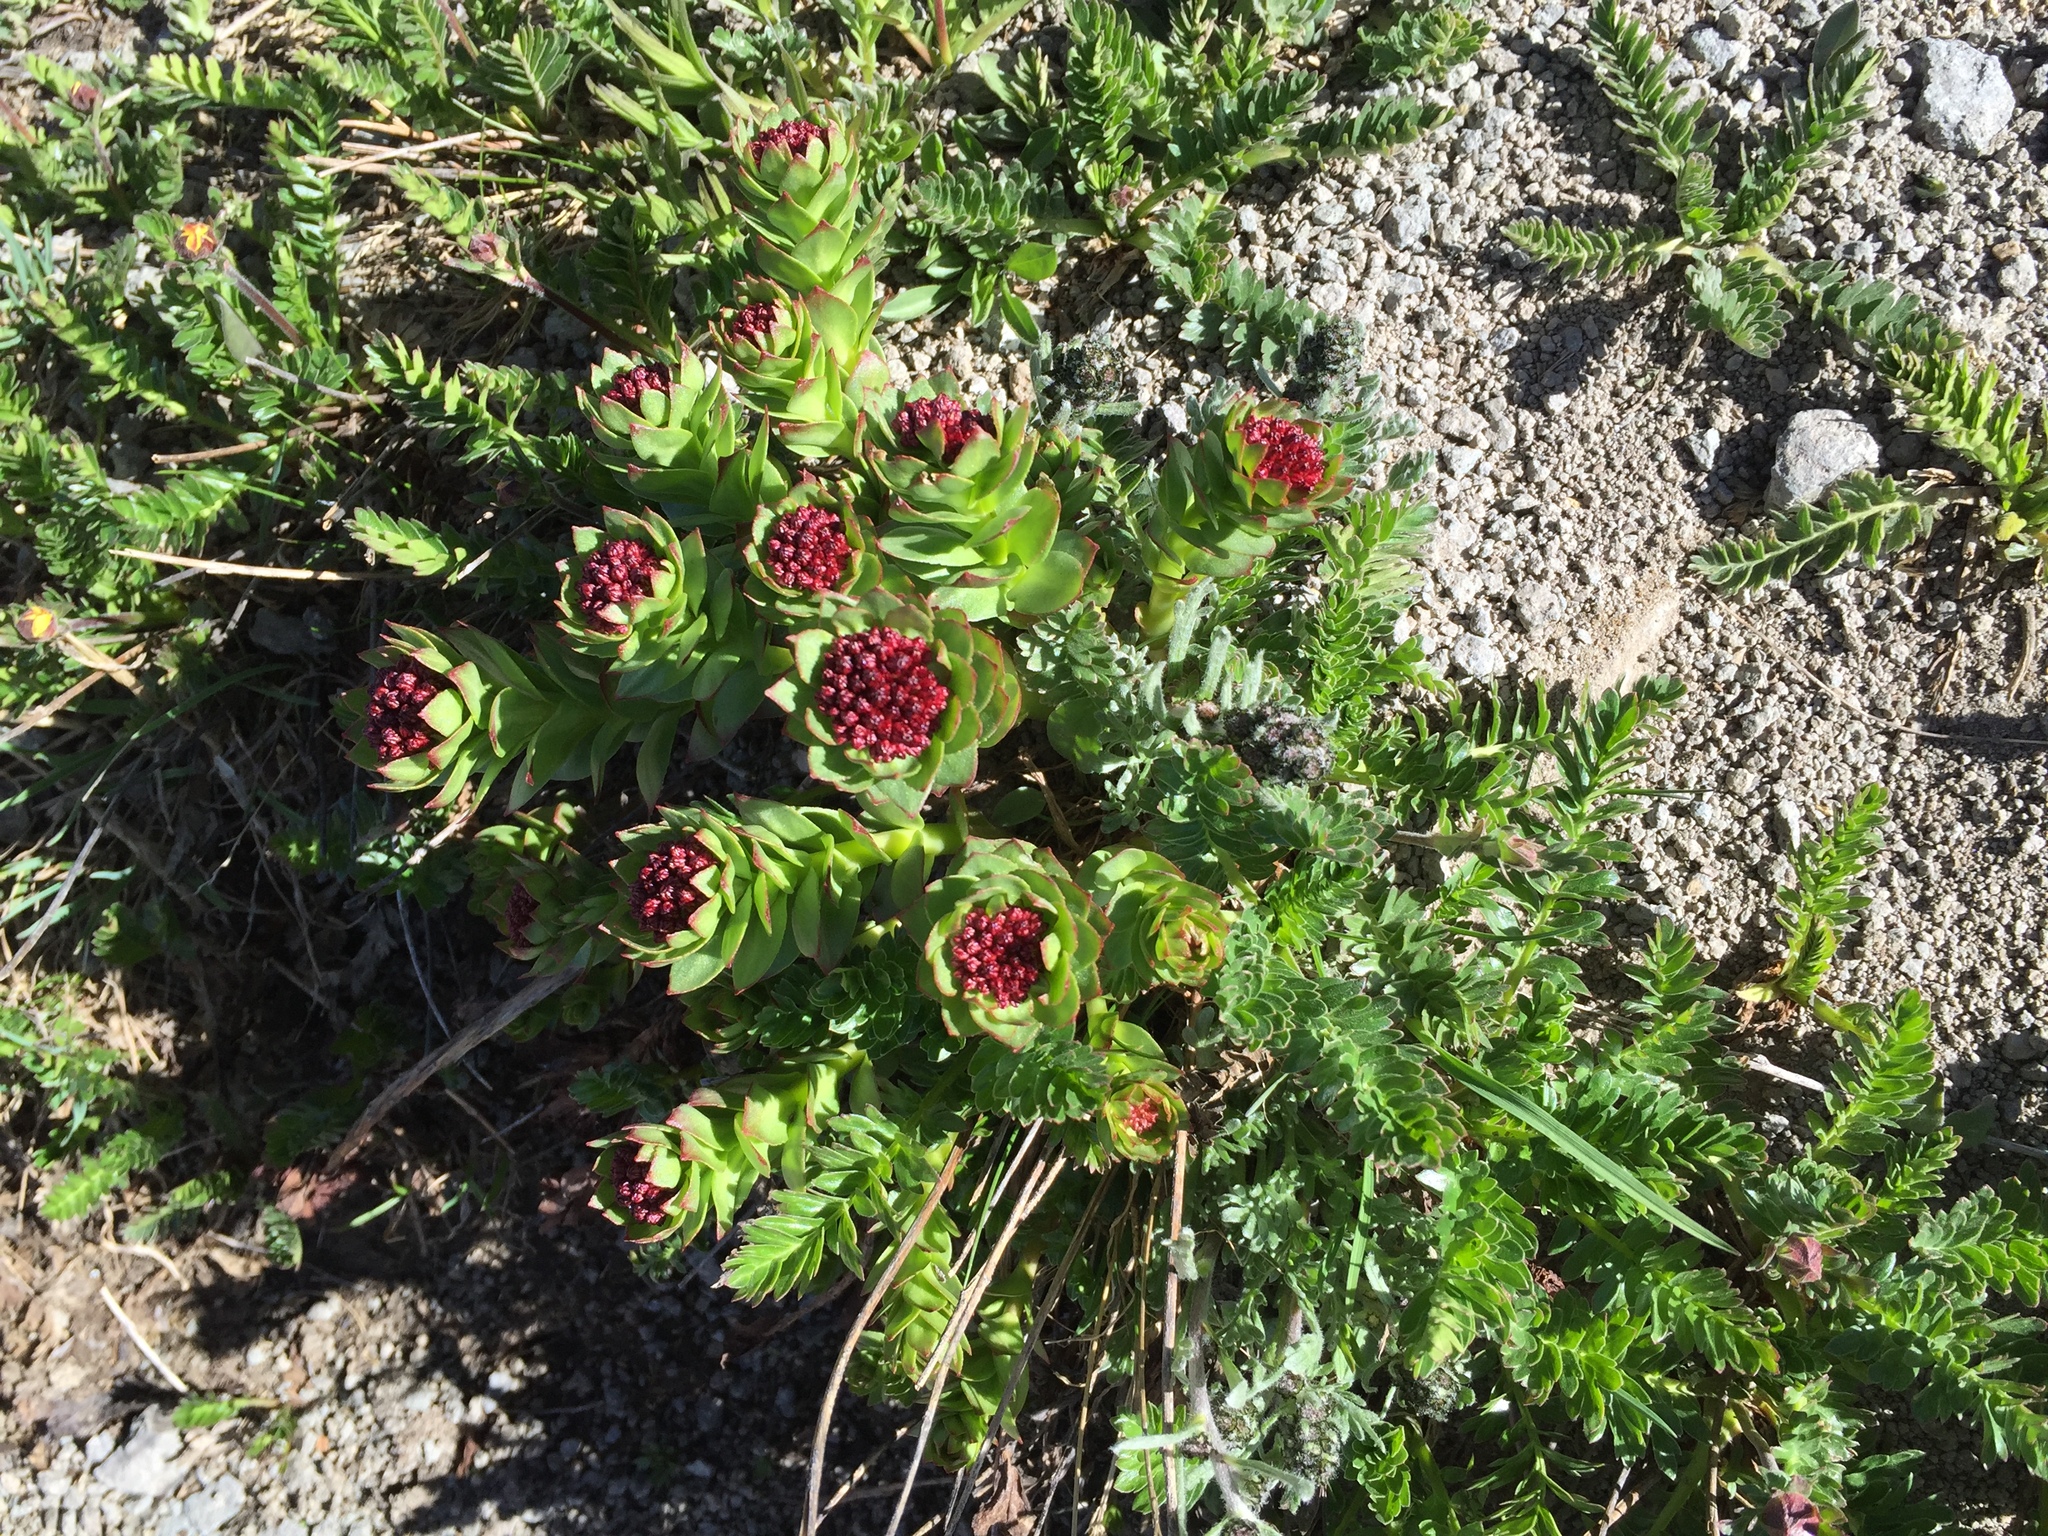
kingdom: Plantae
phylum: Tracheophyta
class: Magnoliopsida
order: Saxifragales
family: Crassulaceae
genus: Rhodiola
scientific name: Rhodiola integrifolia
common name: Western roseroot
